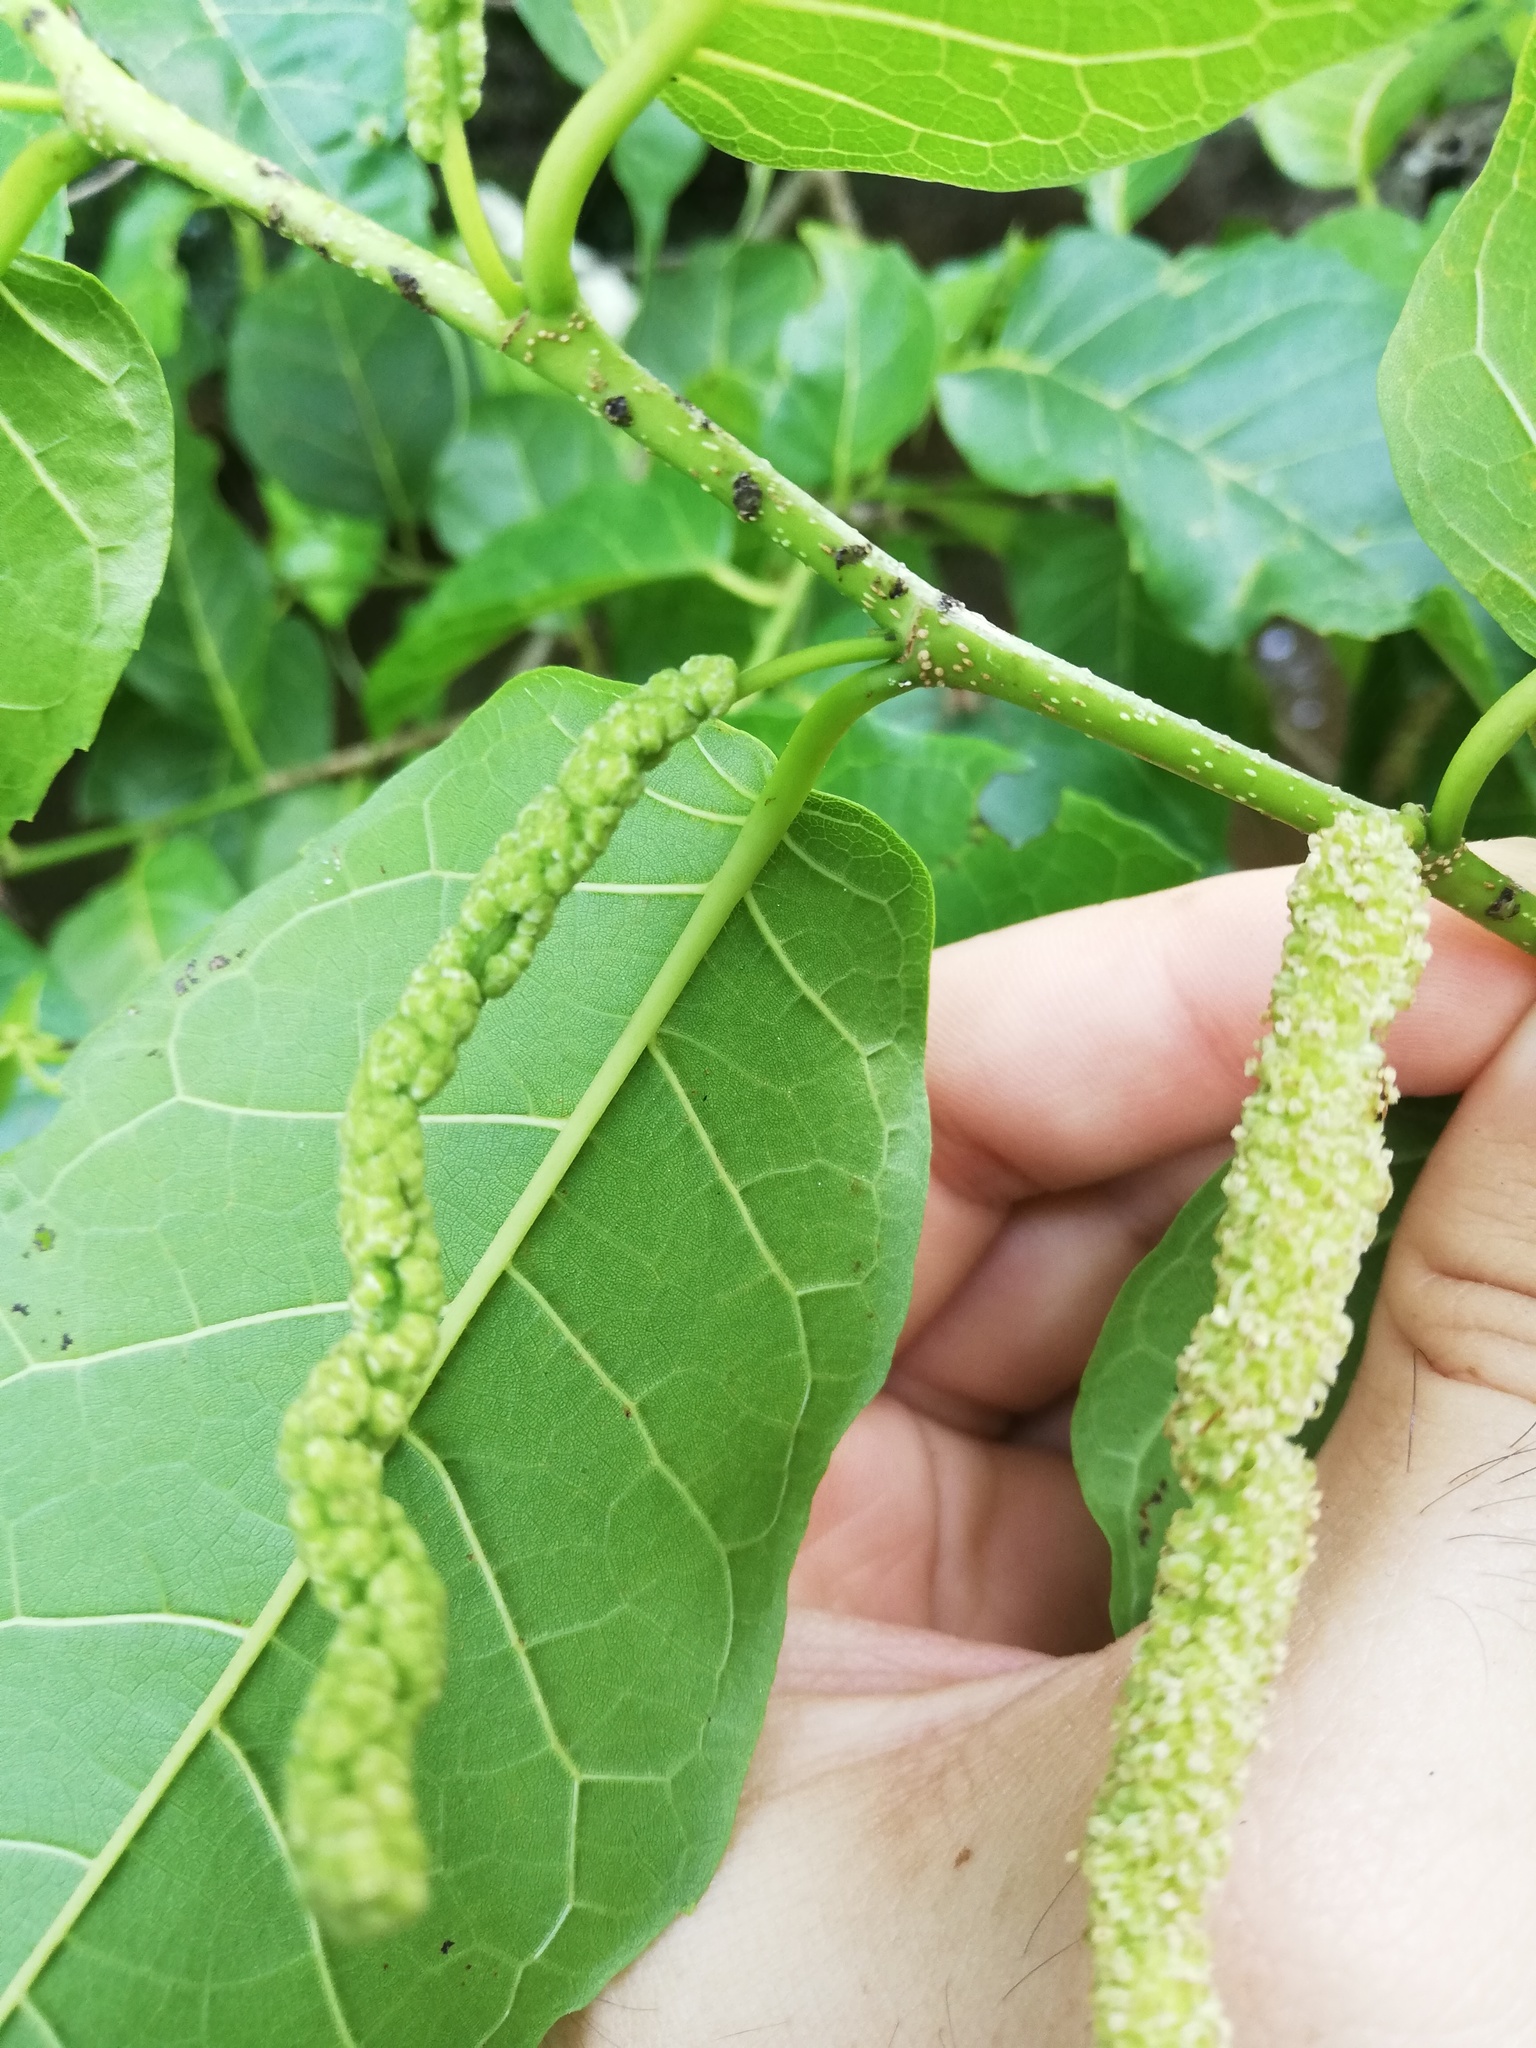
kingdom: Plantae
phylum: Tracheophyta
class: Magnoliopsida
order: Rosales
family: Moraceae
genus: Maclura
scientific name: Maclura tinctoria
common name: Old fustic
